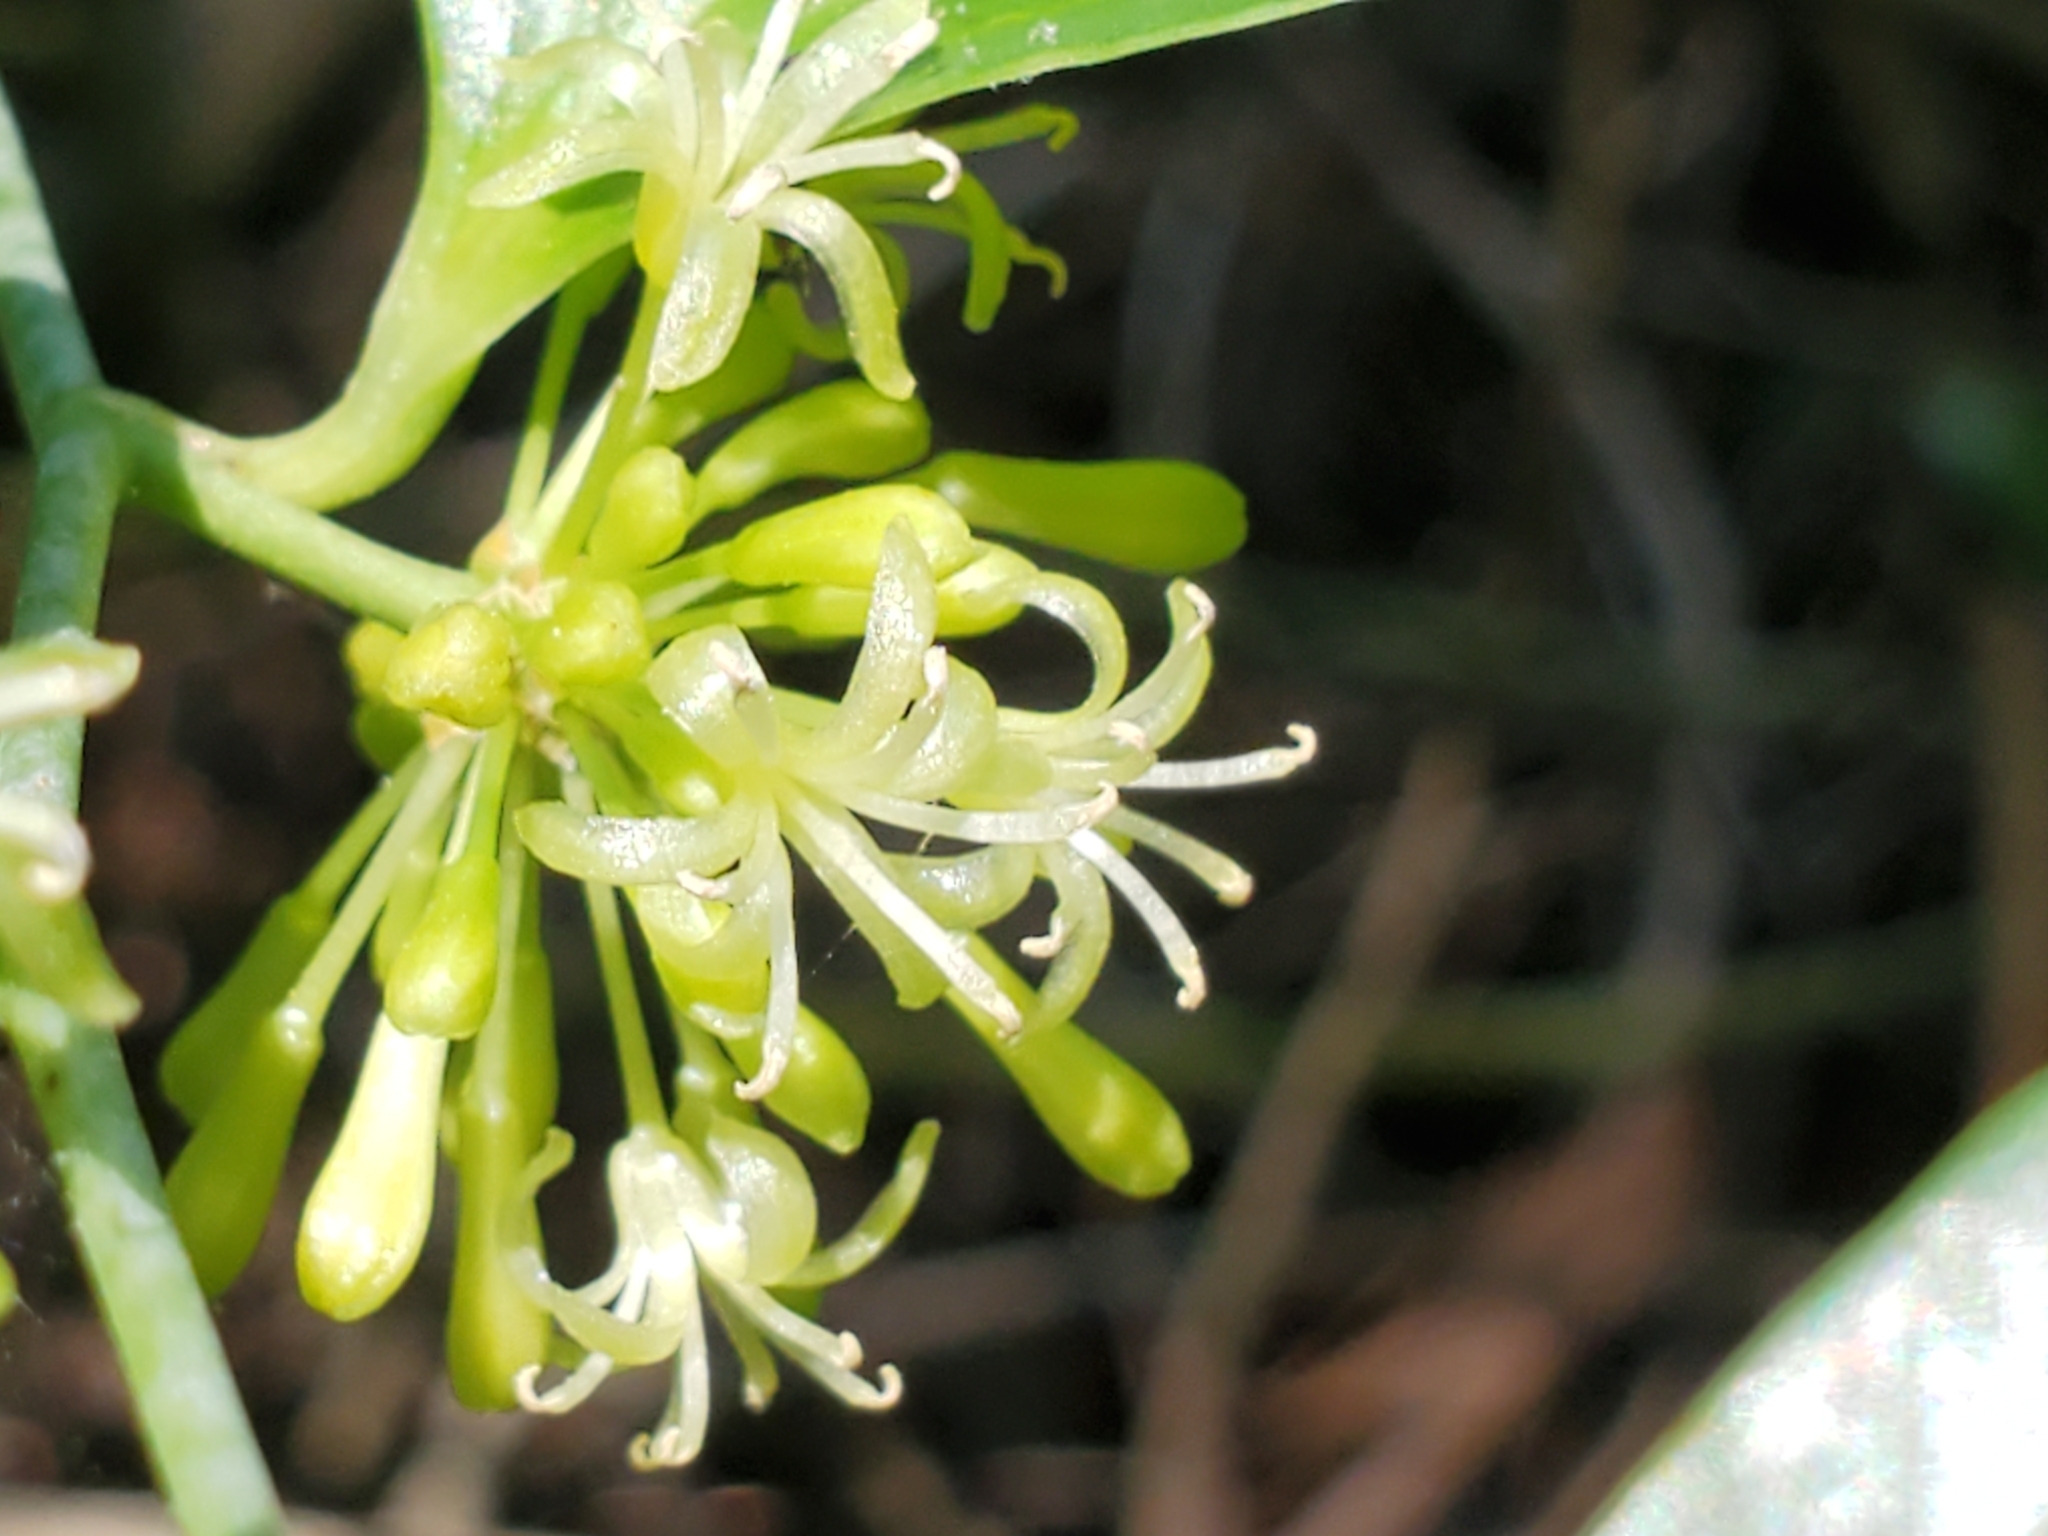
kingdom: Plantae
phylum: Tracheophyta
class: Liliopsida
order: Liliales
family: Smilacaceae
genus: Smilax
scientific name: Smilax maritima
